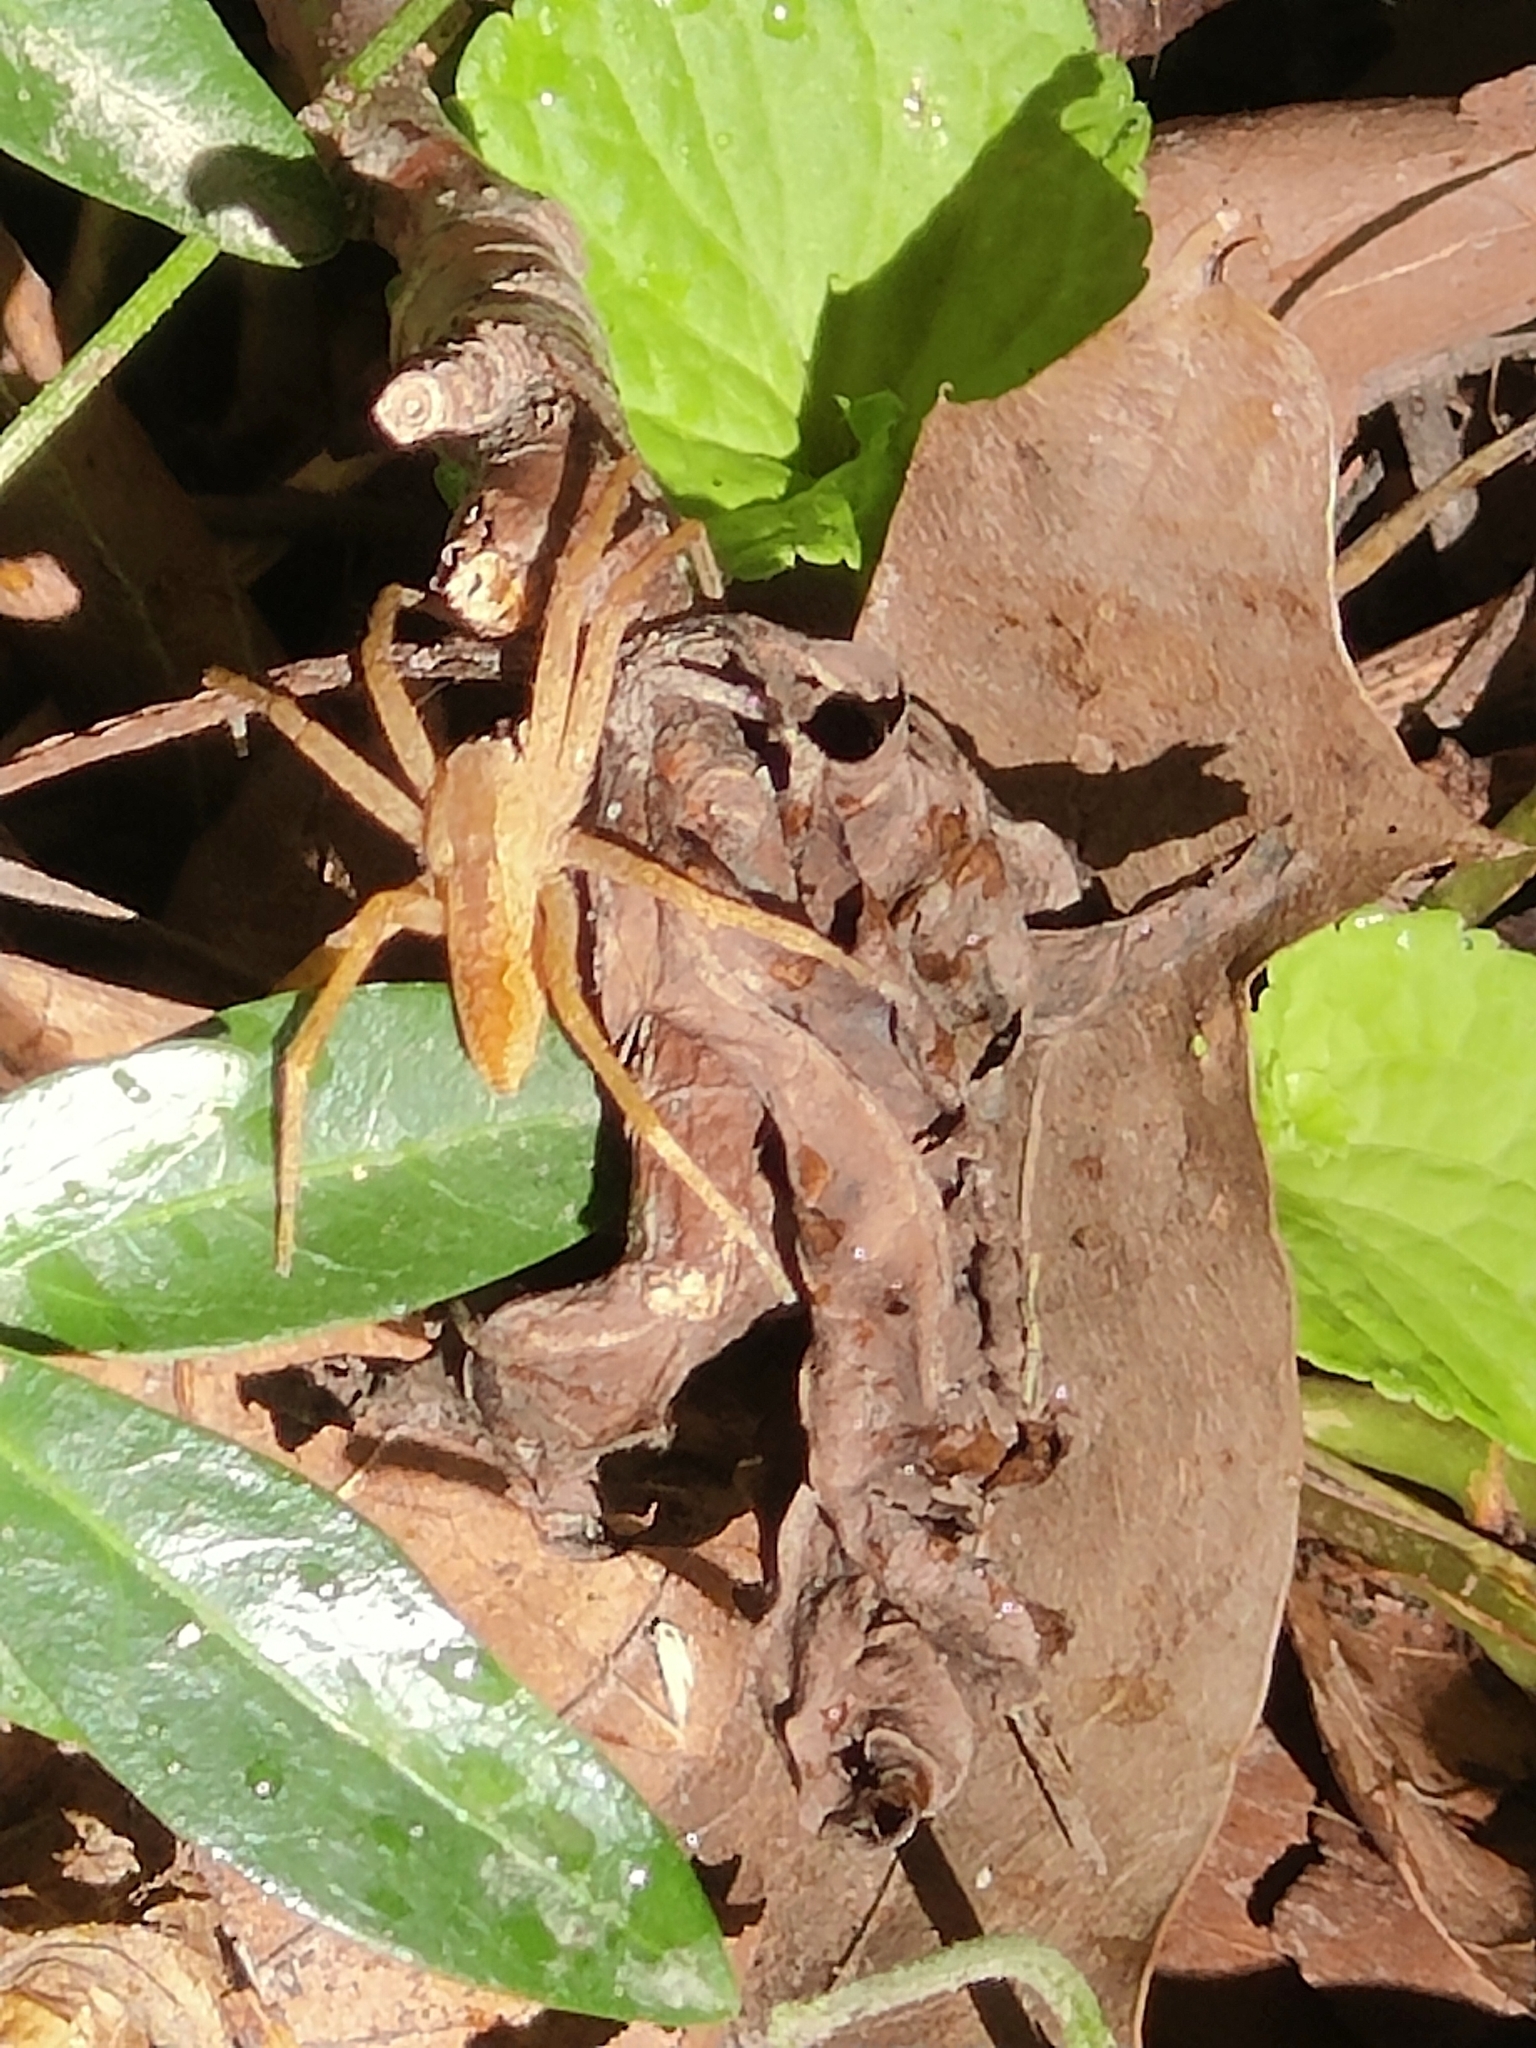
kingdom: Animalia
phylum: Arthropoda
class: Arachnida
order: Araneae
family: Pisauridae
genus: Pisaurina
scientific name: Pisaurina mira
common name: American nursery web spider
